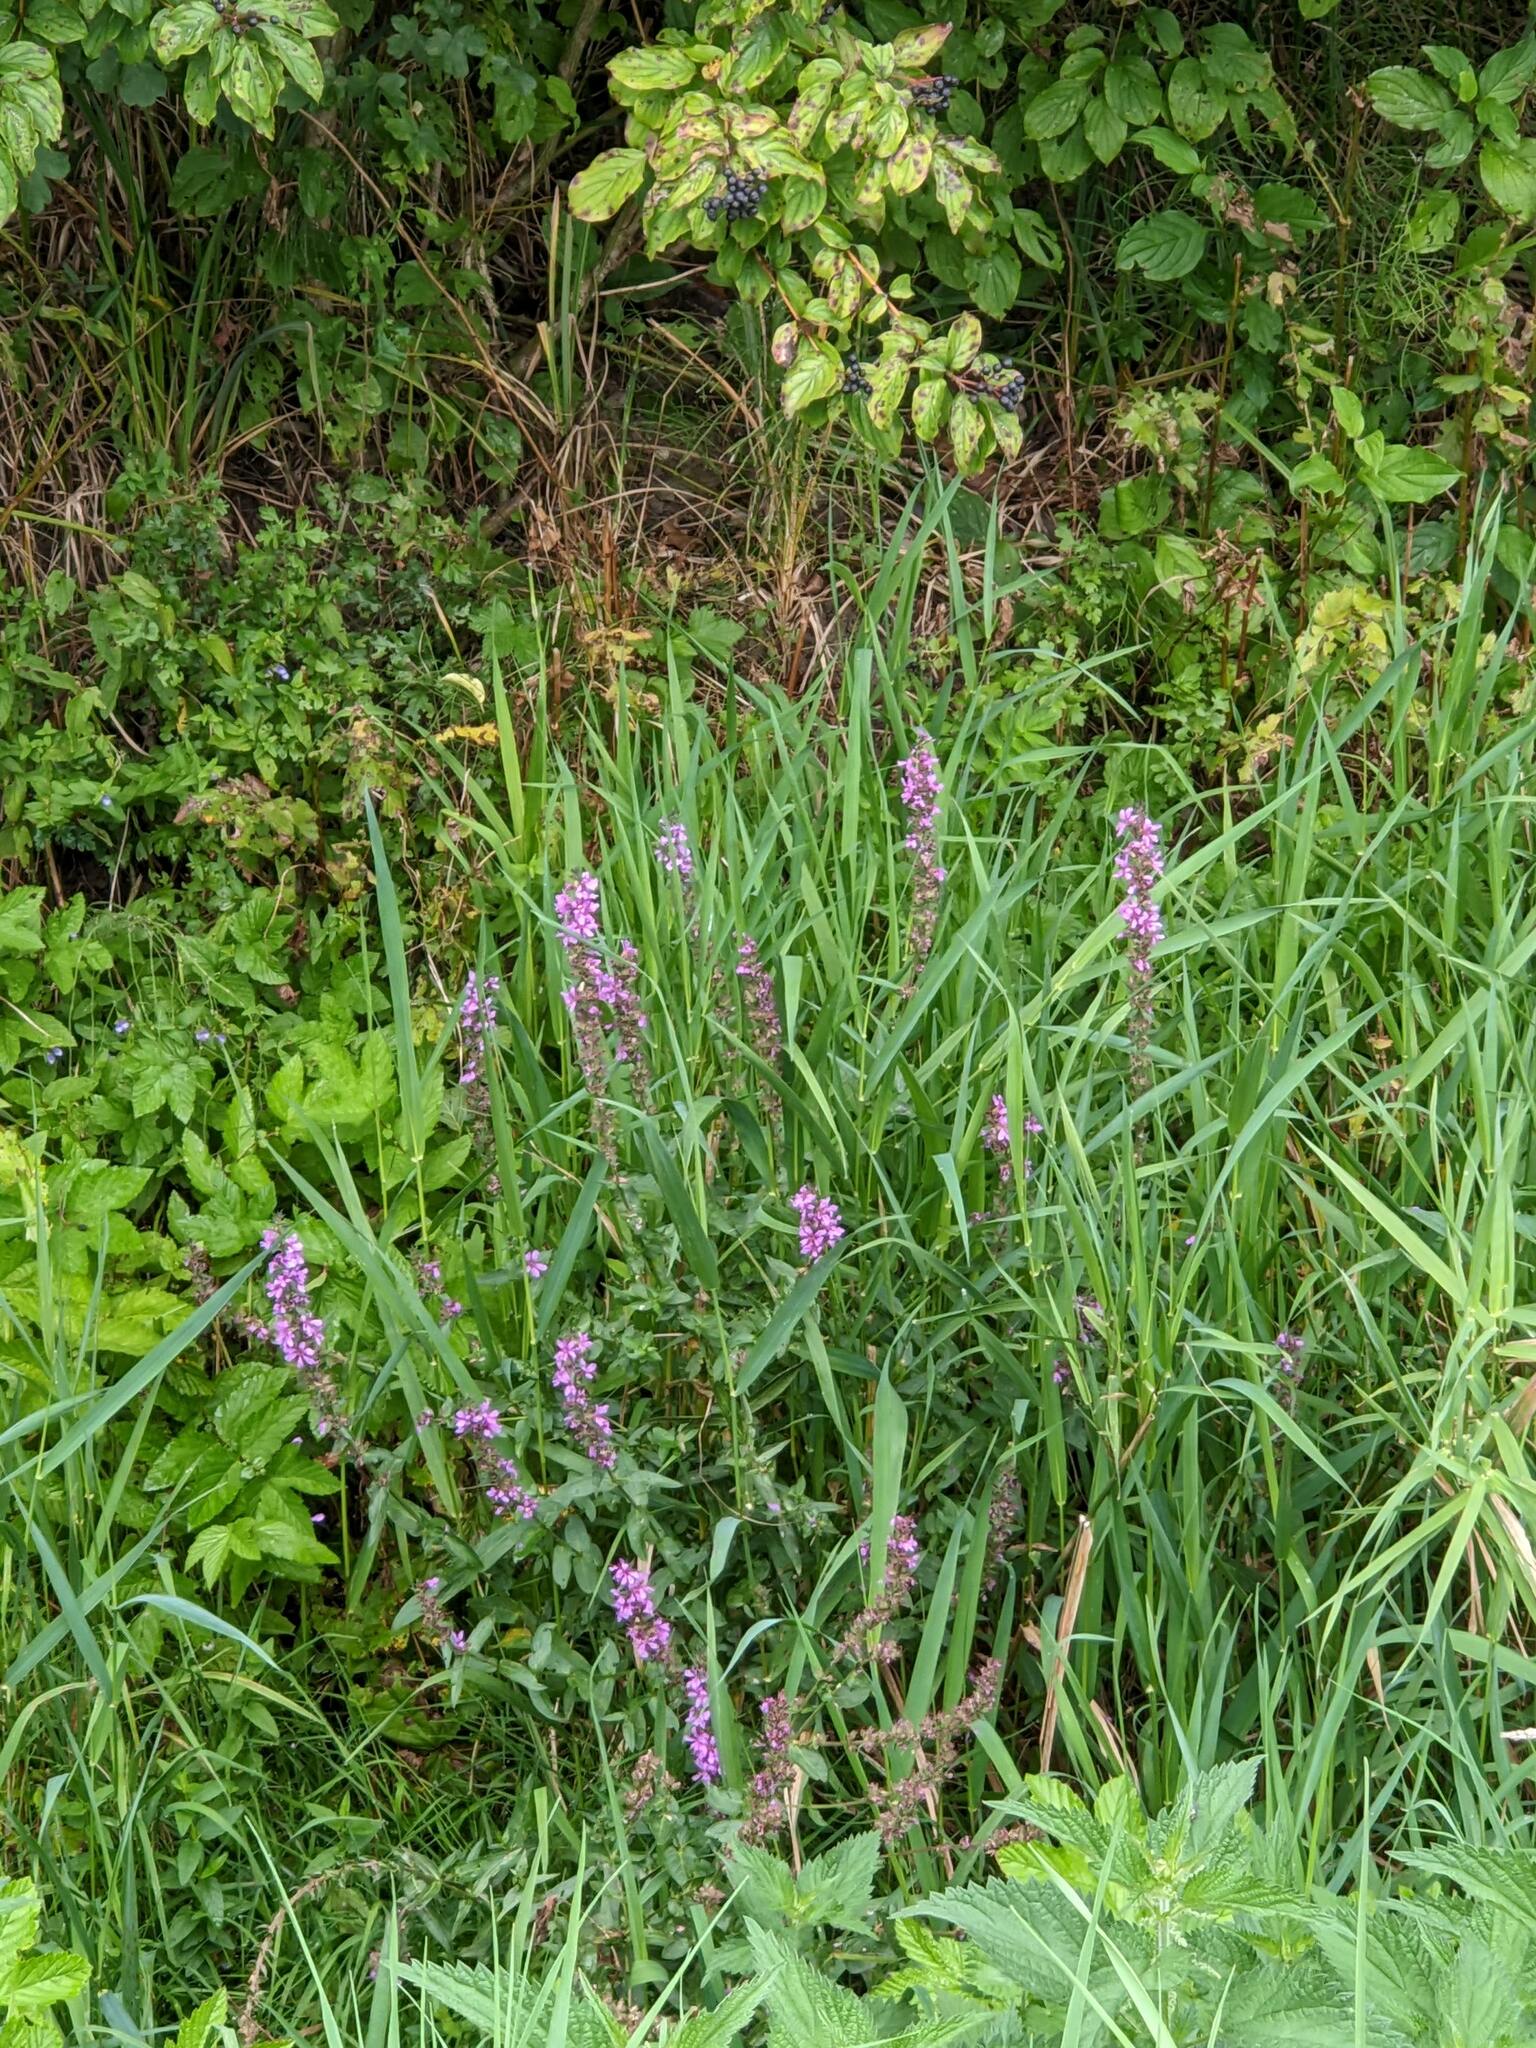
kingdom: Plantae
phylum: Tracheophyta
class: Magnoliopsida
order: Myrtales
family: Lythraceae
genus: Lythrum
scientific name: Lythrum salicaria
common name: Purple loosestrife
